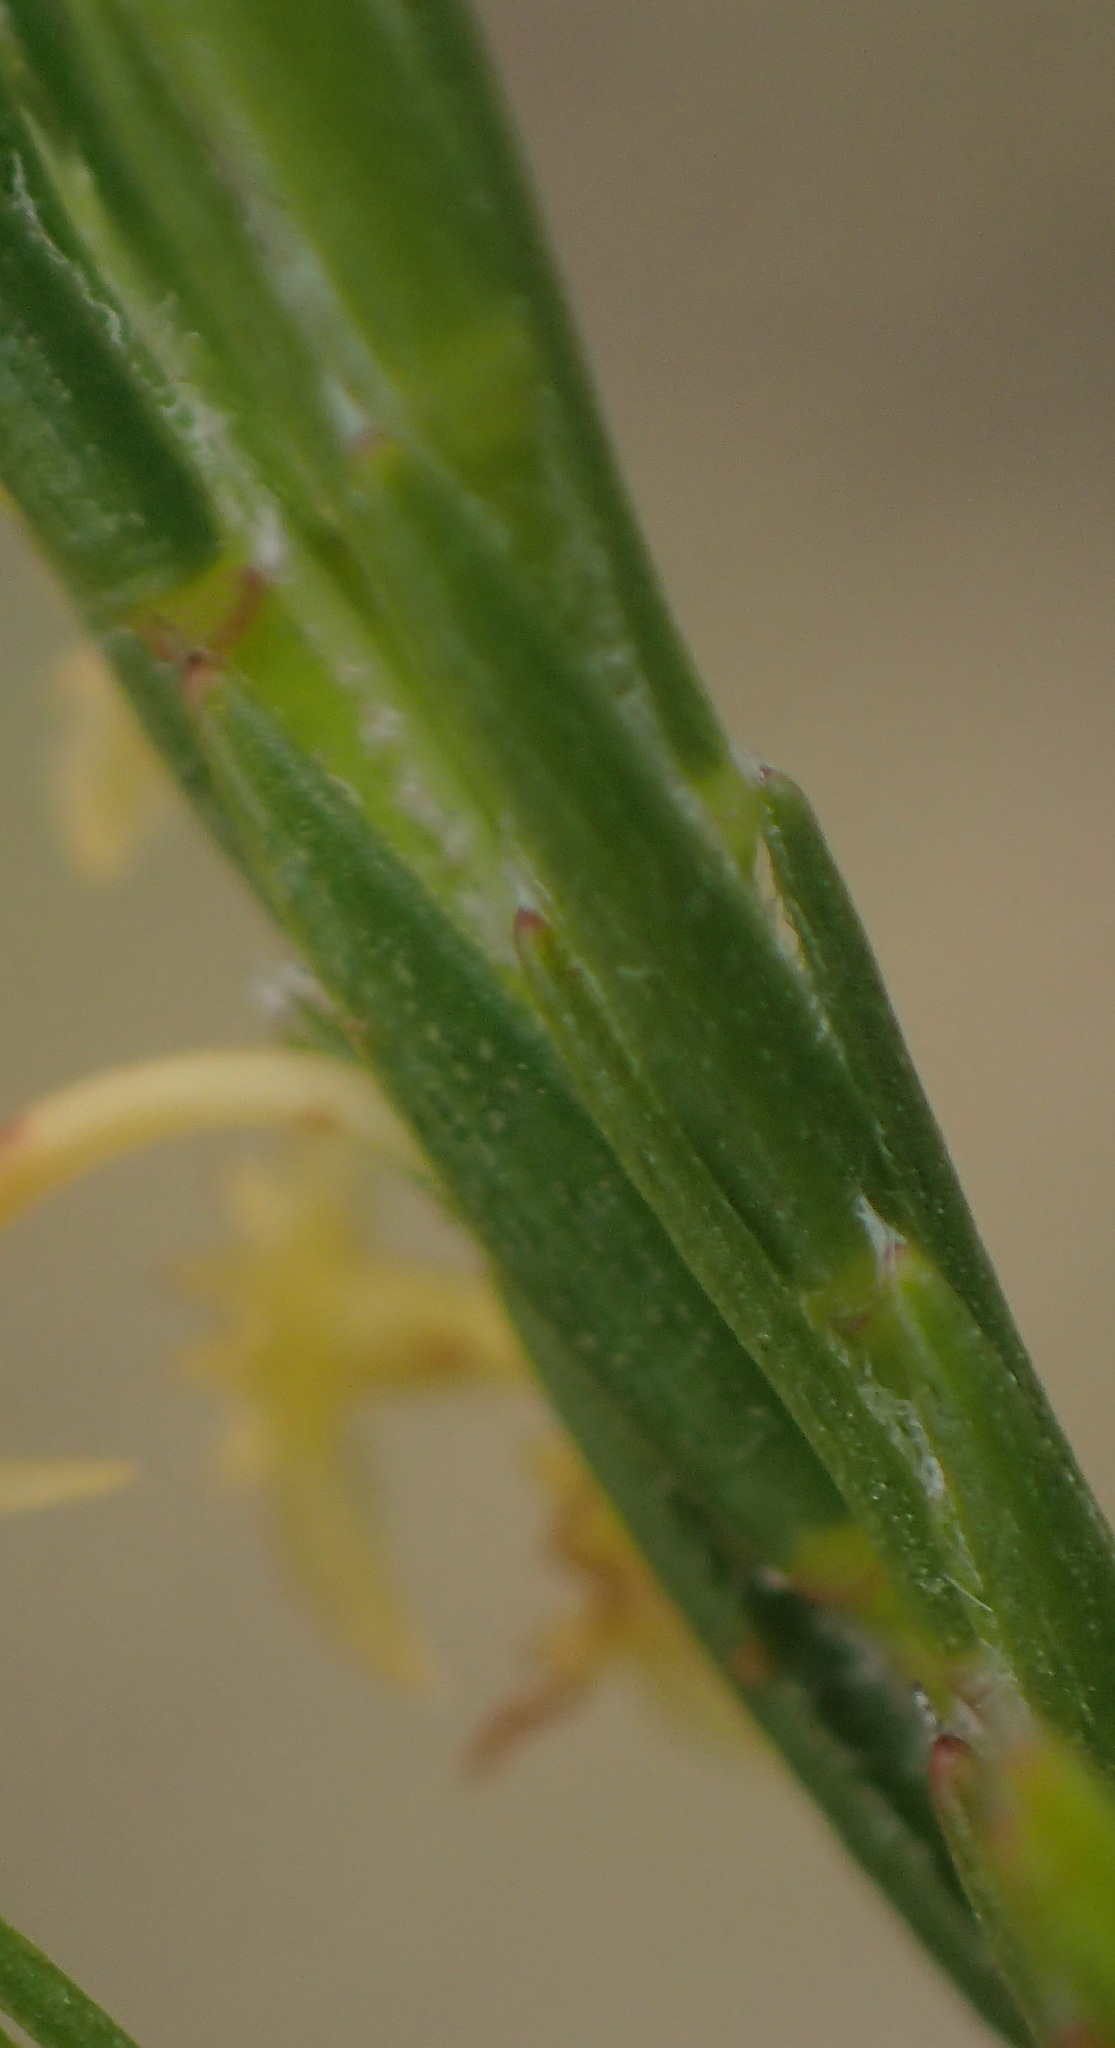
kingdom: Plantae
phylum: Tracheophyta
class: Magnoliopsida
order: Malvales
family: Thymelaeaceae
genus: Struthiola
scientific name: Struthiola parviflora
